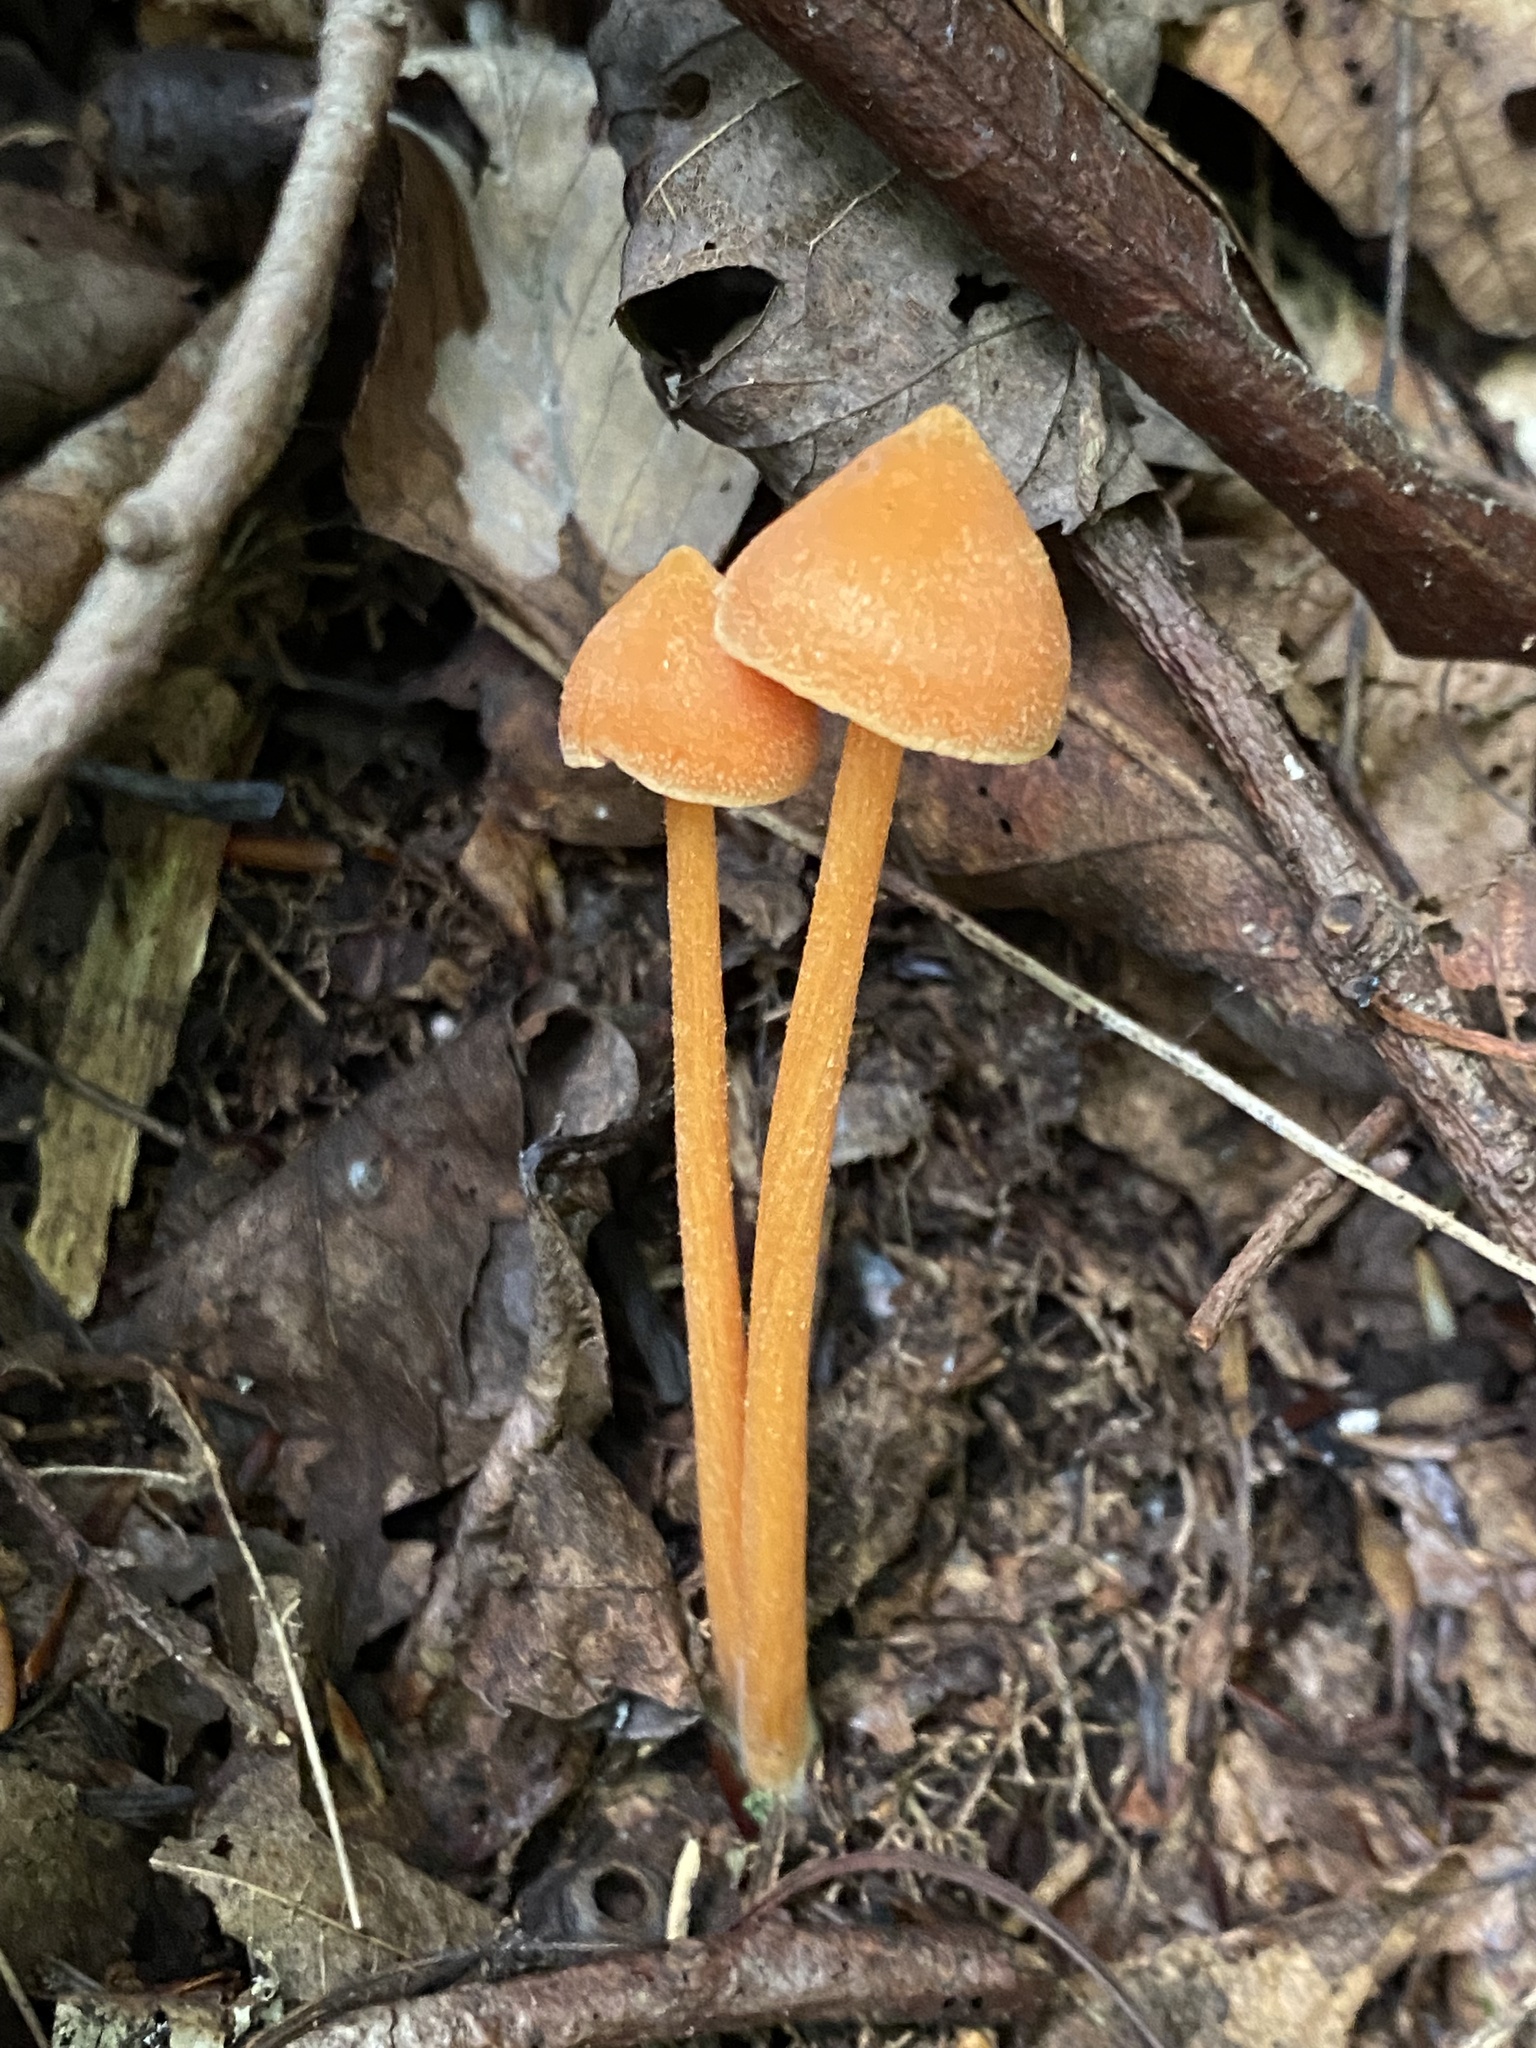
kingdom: Fungi
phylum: Basidiomycota
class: Agaricomycetes
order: Agaricales
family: Entolomataceae
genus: Entoloma
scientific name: Entoloma quadratum
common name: Salmon pinkgill
